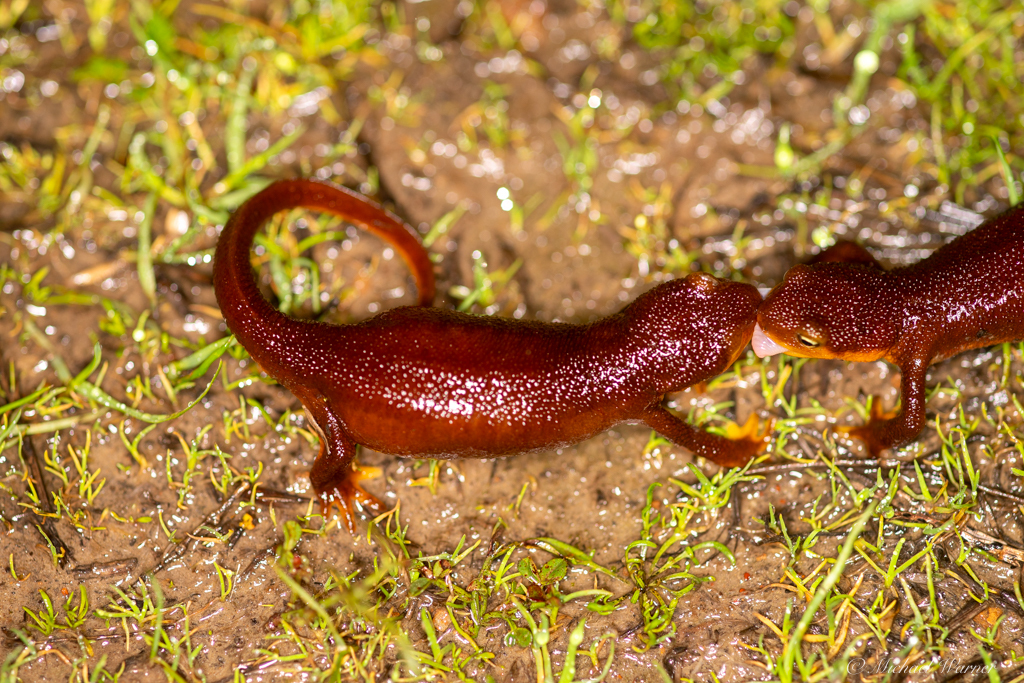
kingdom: Animalia
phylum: Chordata
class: Amphibia
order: Caudata
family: Salamandridae
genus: Taricha
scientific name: Taricha torosa
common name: California newt
